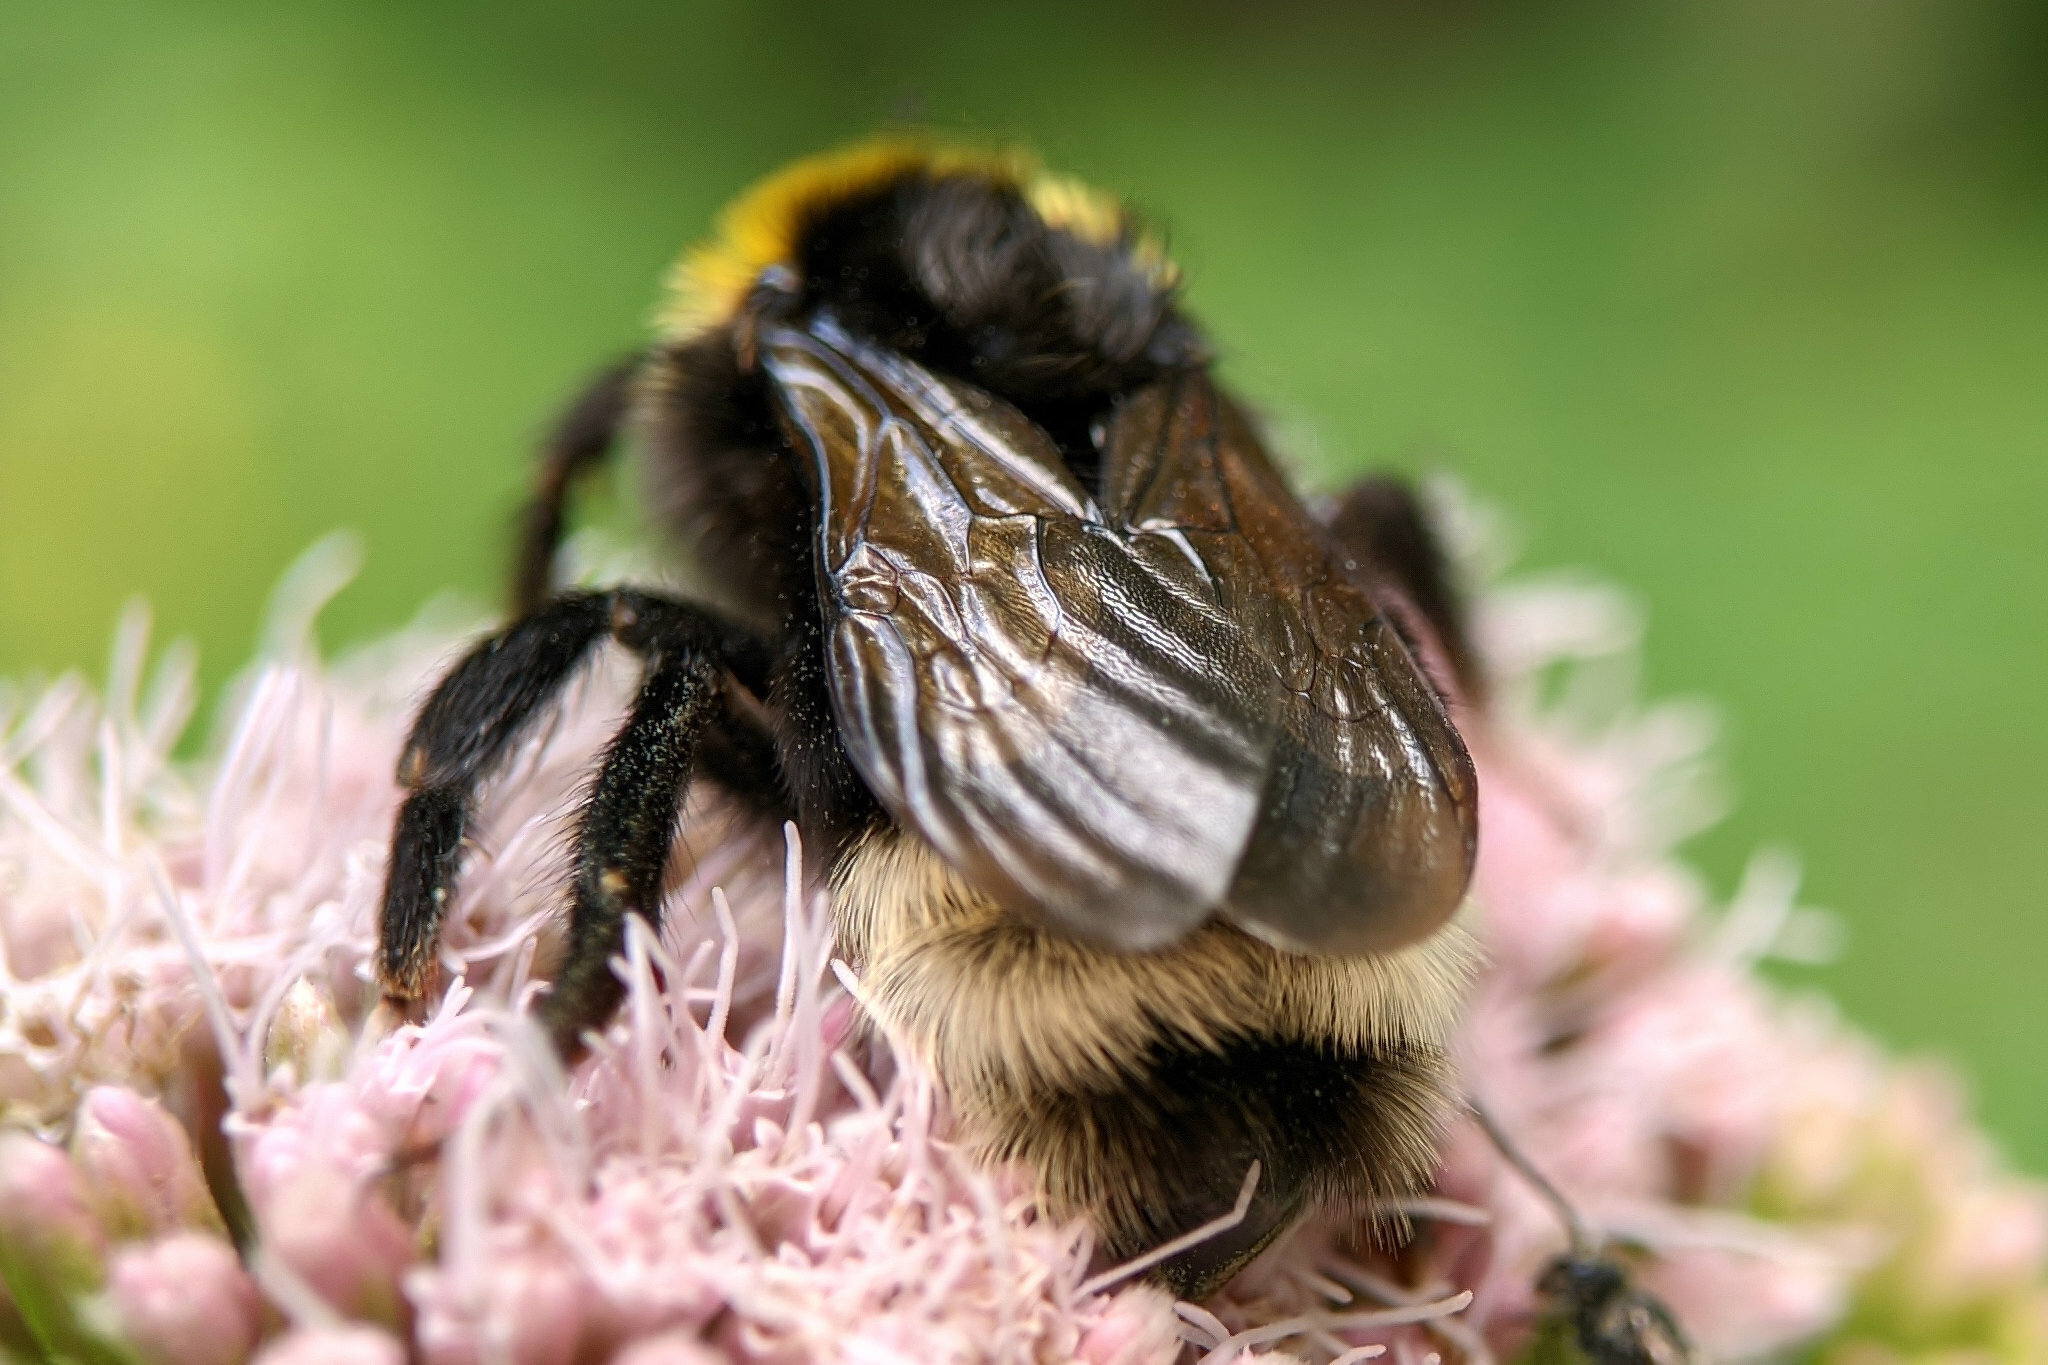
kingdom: Animalia
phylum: Arthropoda
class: Insecta
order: Hymenoptera
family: Apidae
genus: Bombus
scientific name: Bombus bohemicus
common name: Gypsy cuckoo bee
